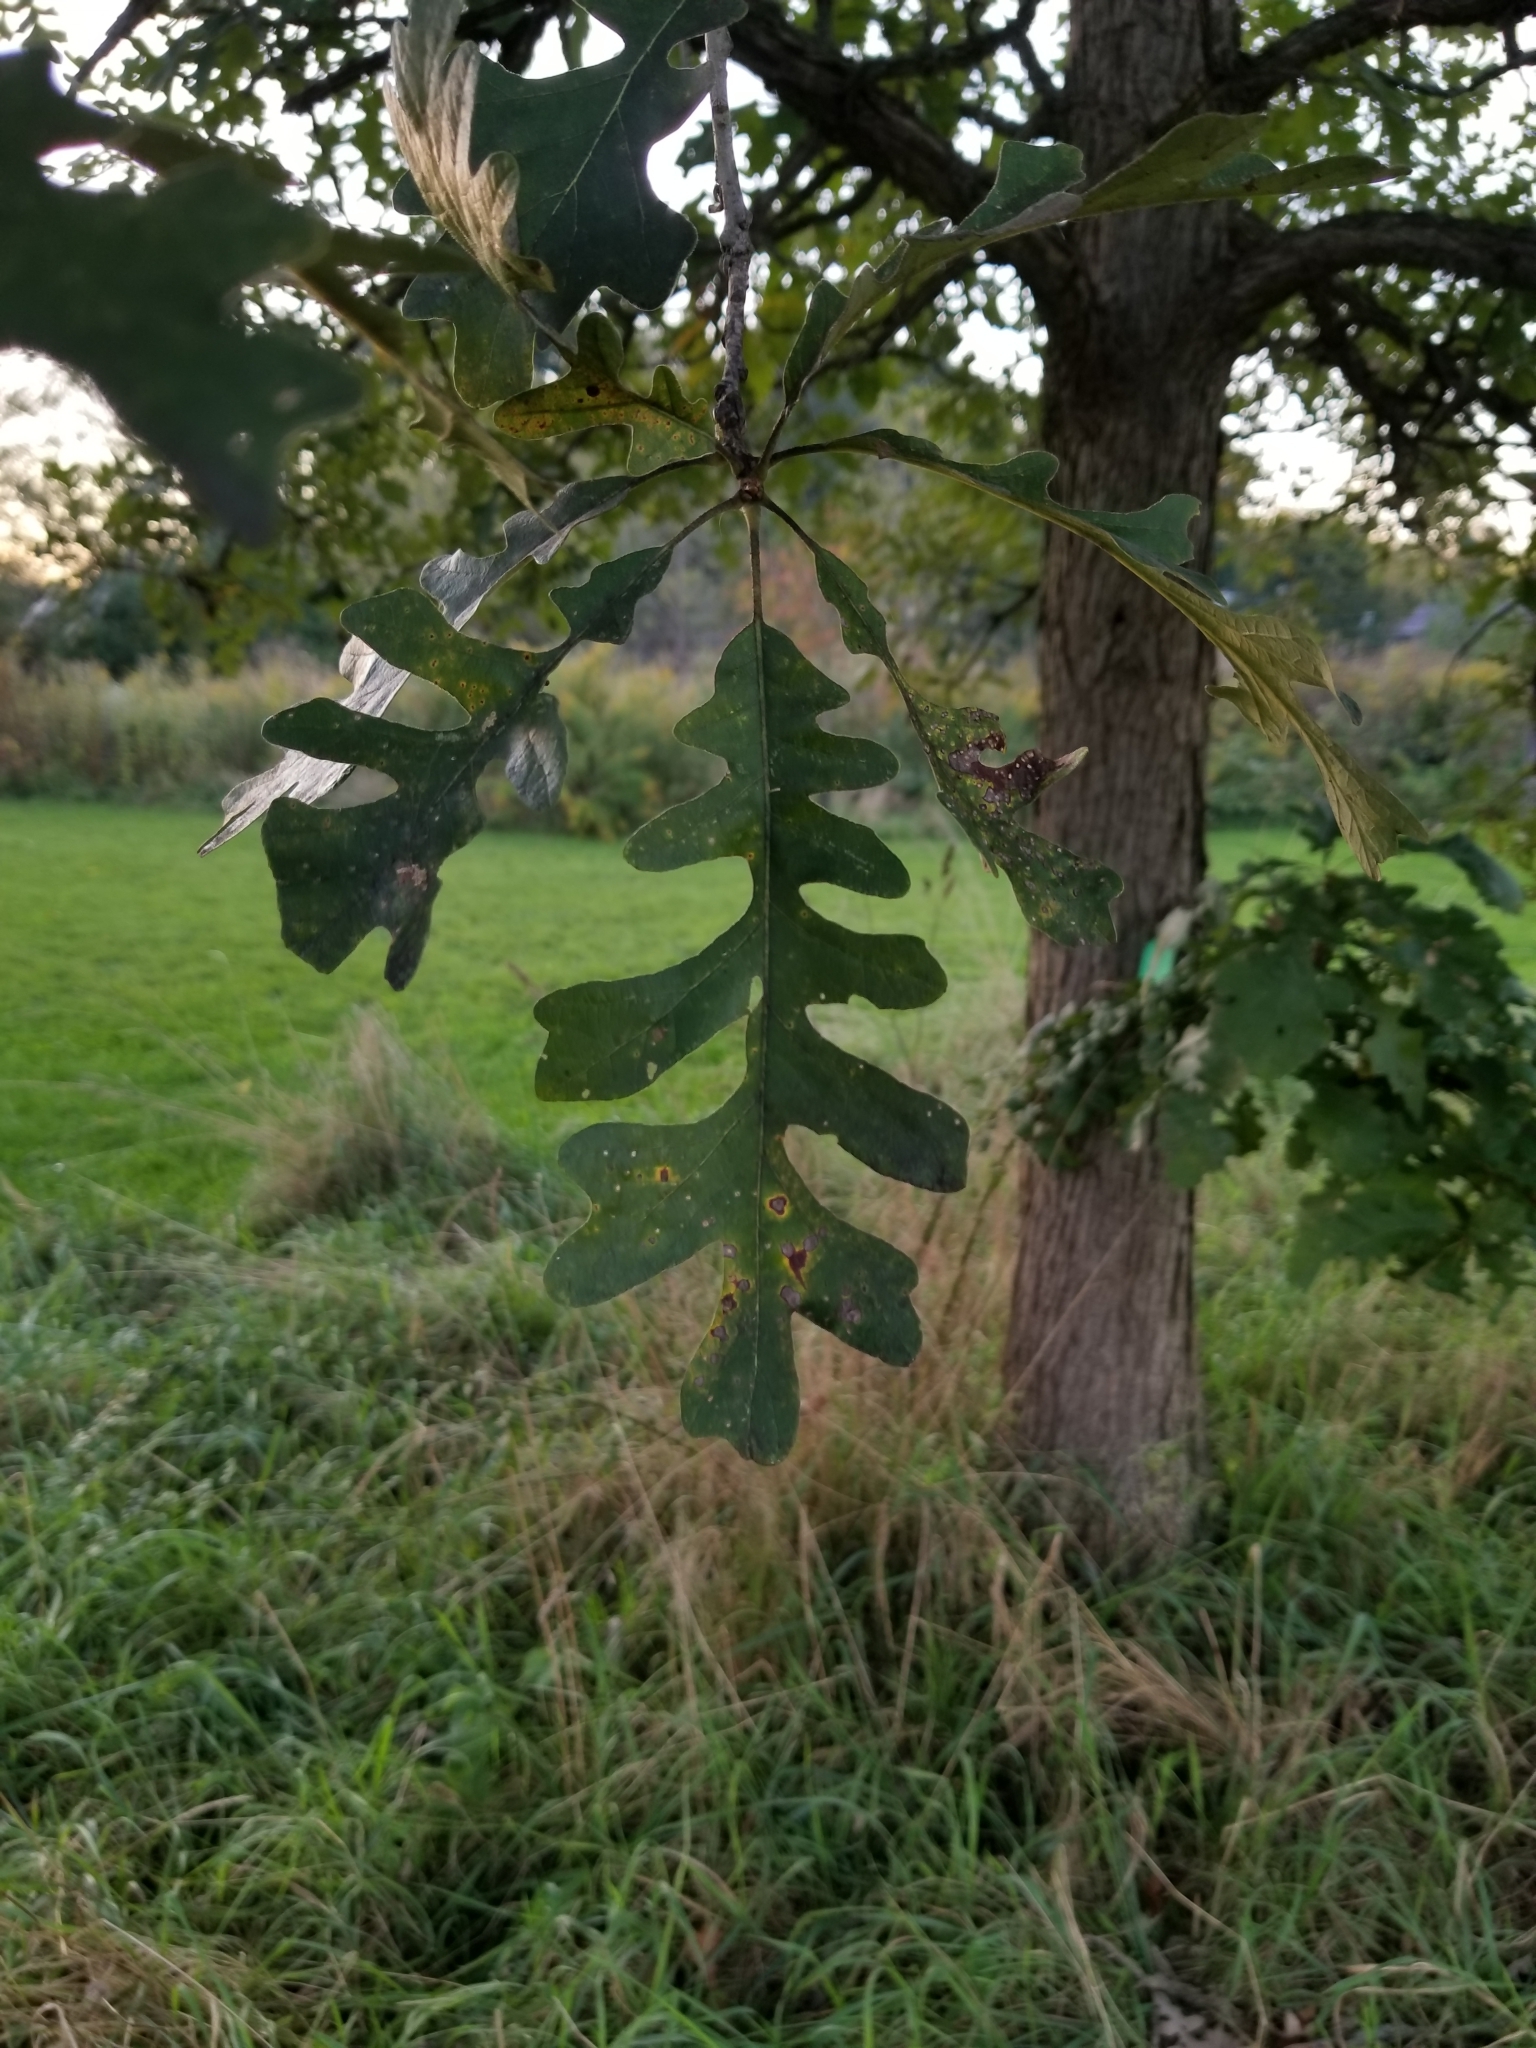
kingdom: Plantae
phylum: Tracheophyta
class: Magnoliopsida
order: Fagales
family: Fagaceae
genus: Quercus
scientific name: Quercus macrocarpa
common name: Bur oak
